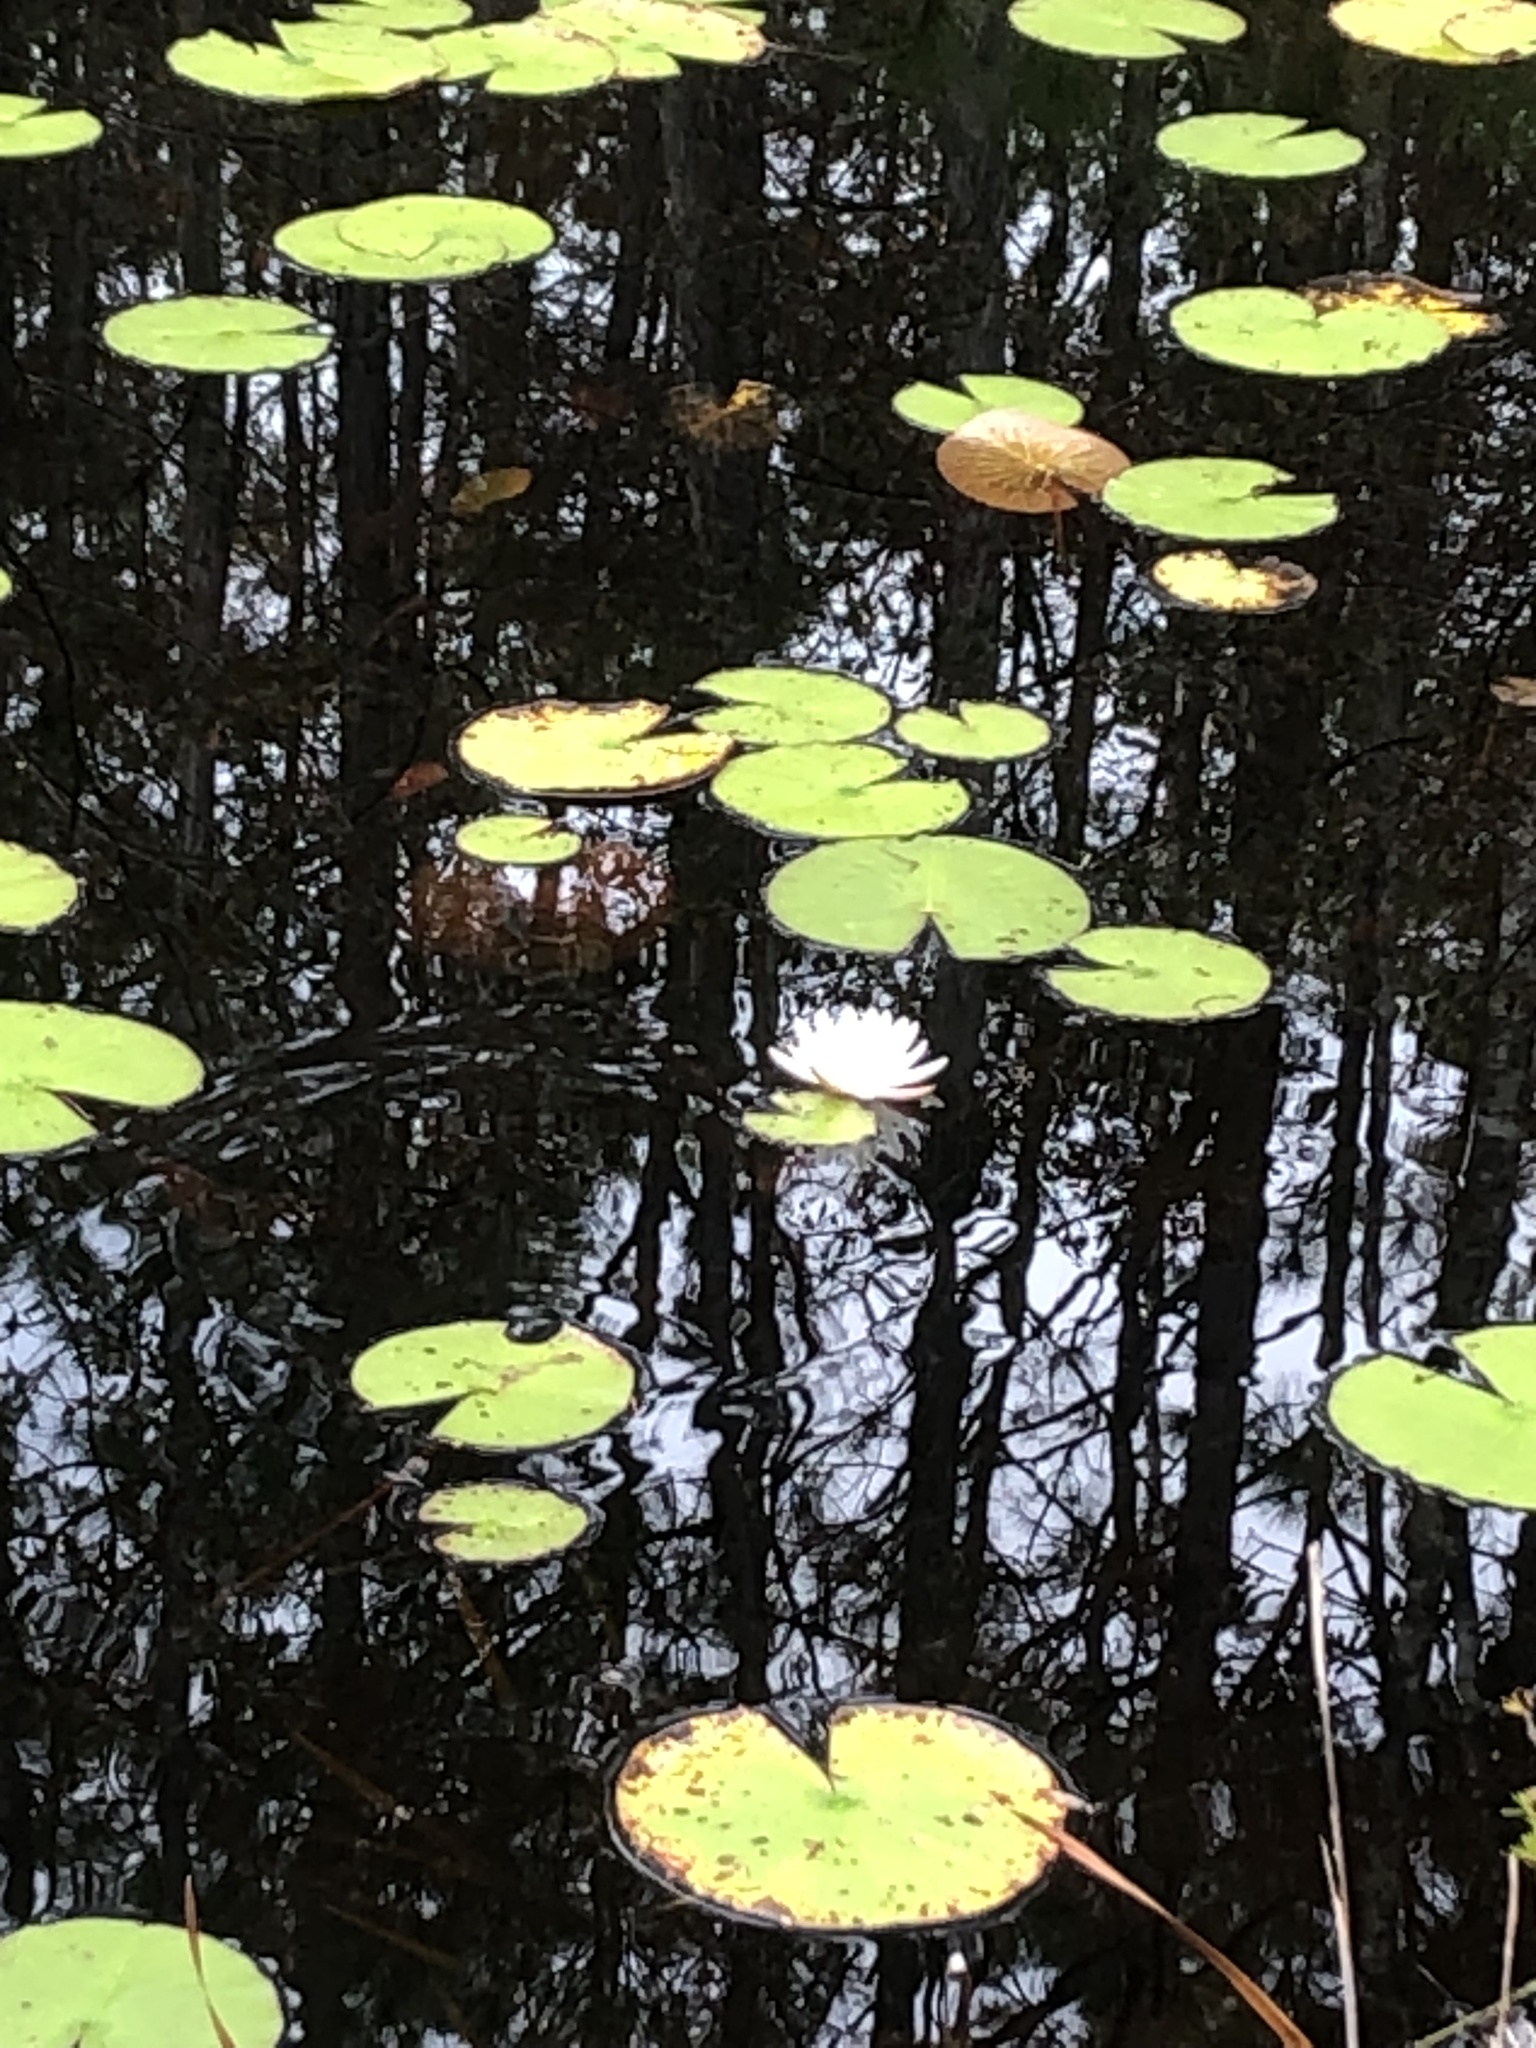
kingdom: Plantae
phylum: Tracheophyta
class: Magnoliopsida
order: Nymphaeales
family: Nymphaeaceae
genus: Nymphaea
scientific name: Nymphaea odorata
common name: Fragrant water-lily
